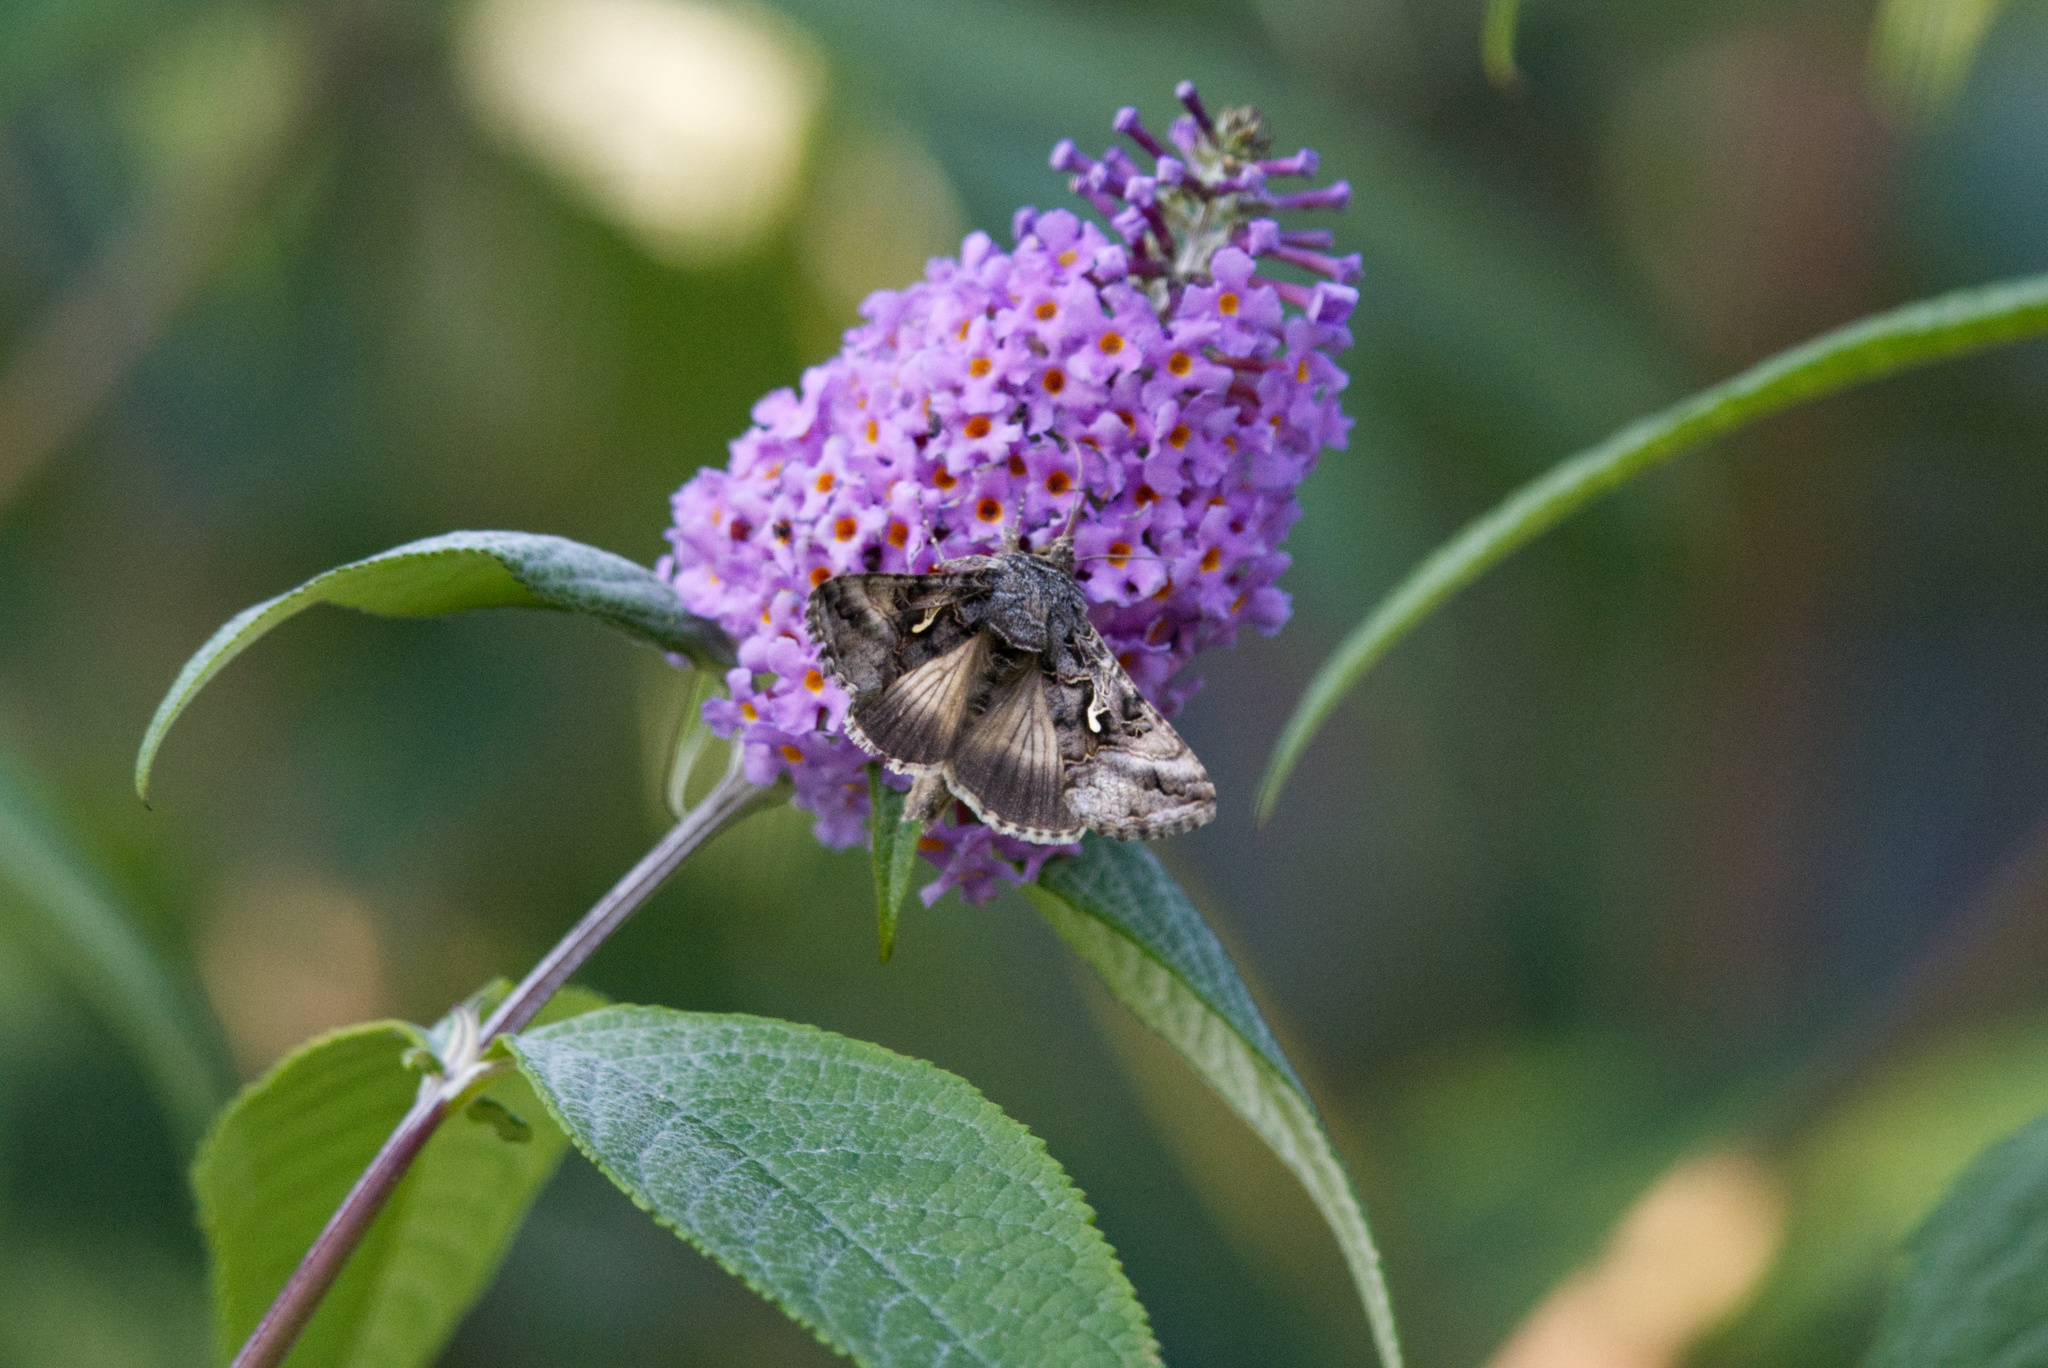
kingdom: Animalia
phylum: Arthropoda
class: Insecta
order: Lepidoptera
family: Noctuidae
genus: Autographa
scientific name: Autographa gamma
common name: Silver y
